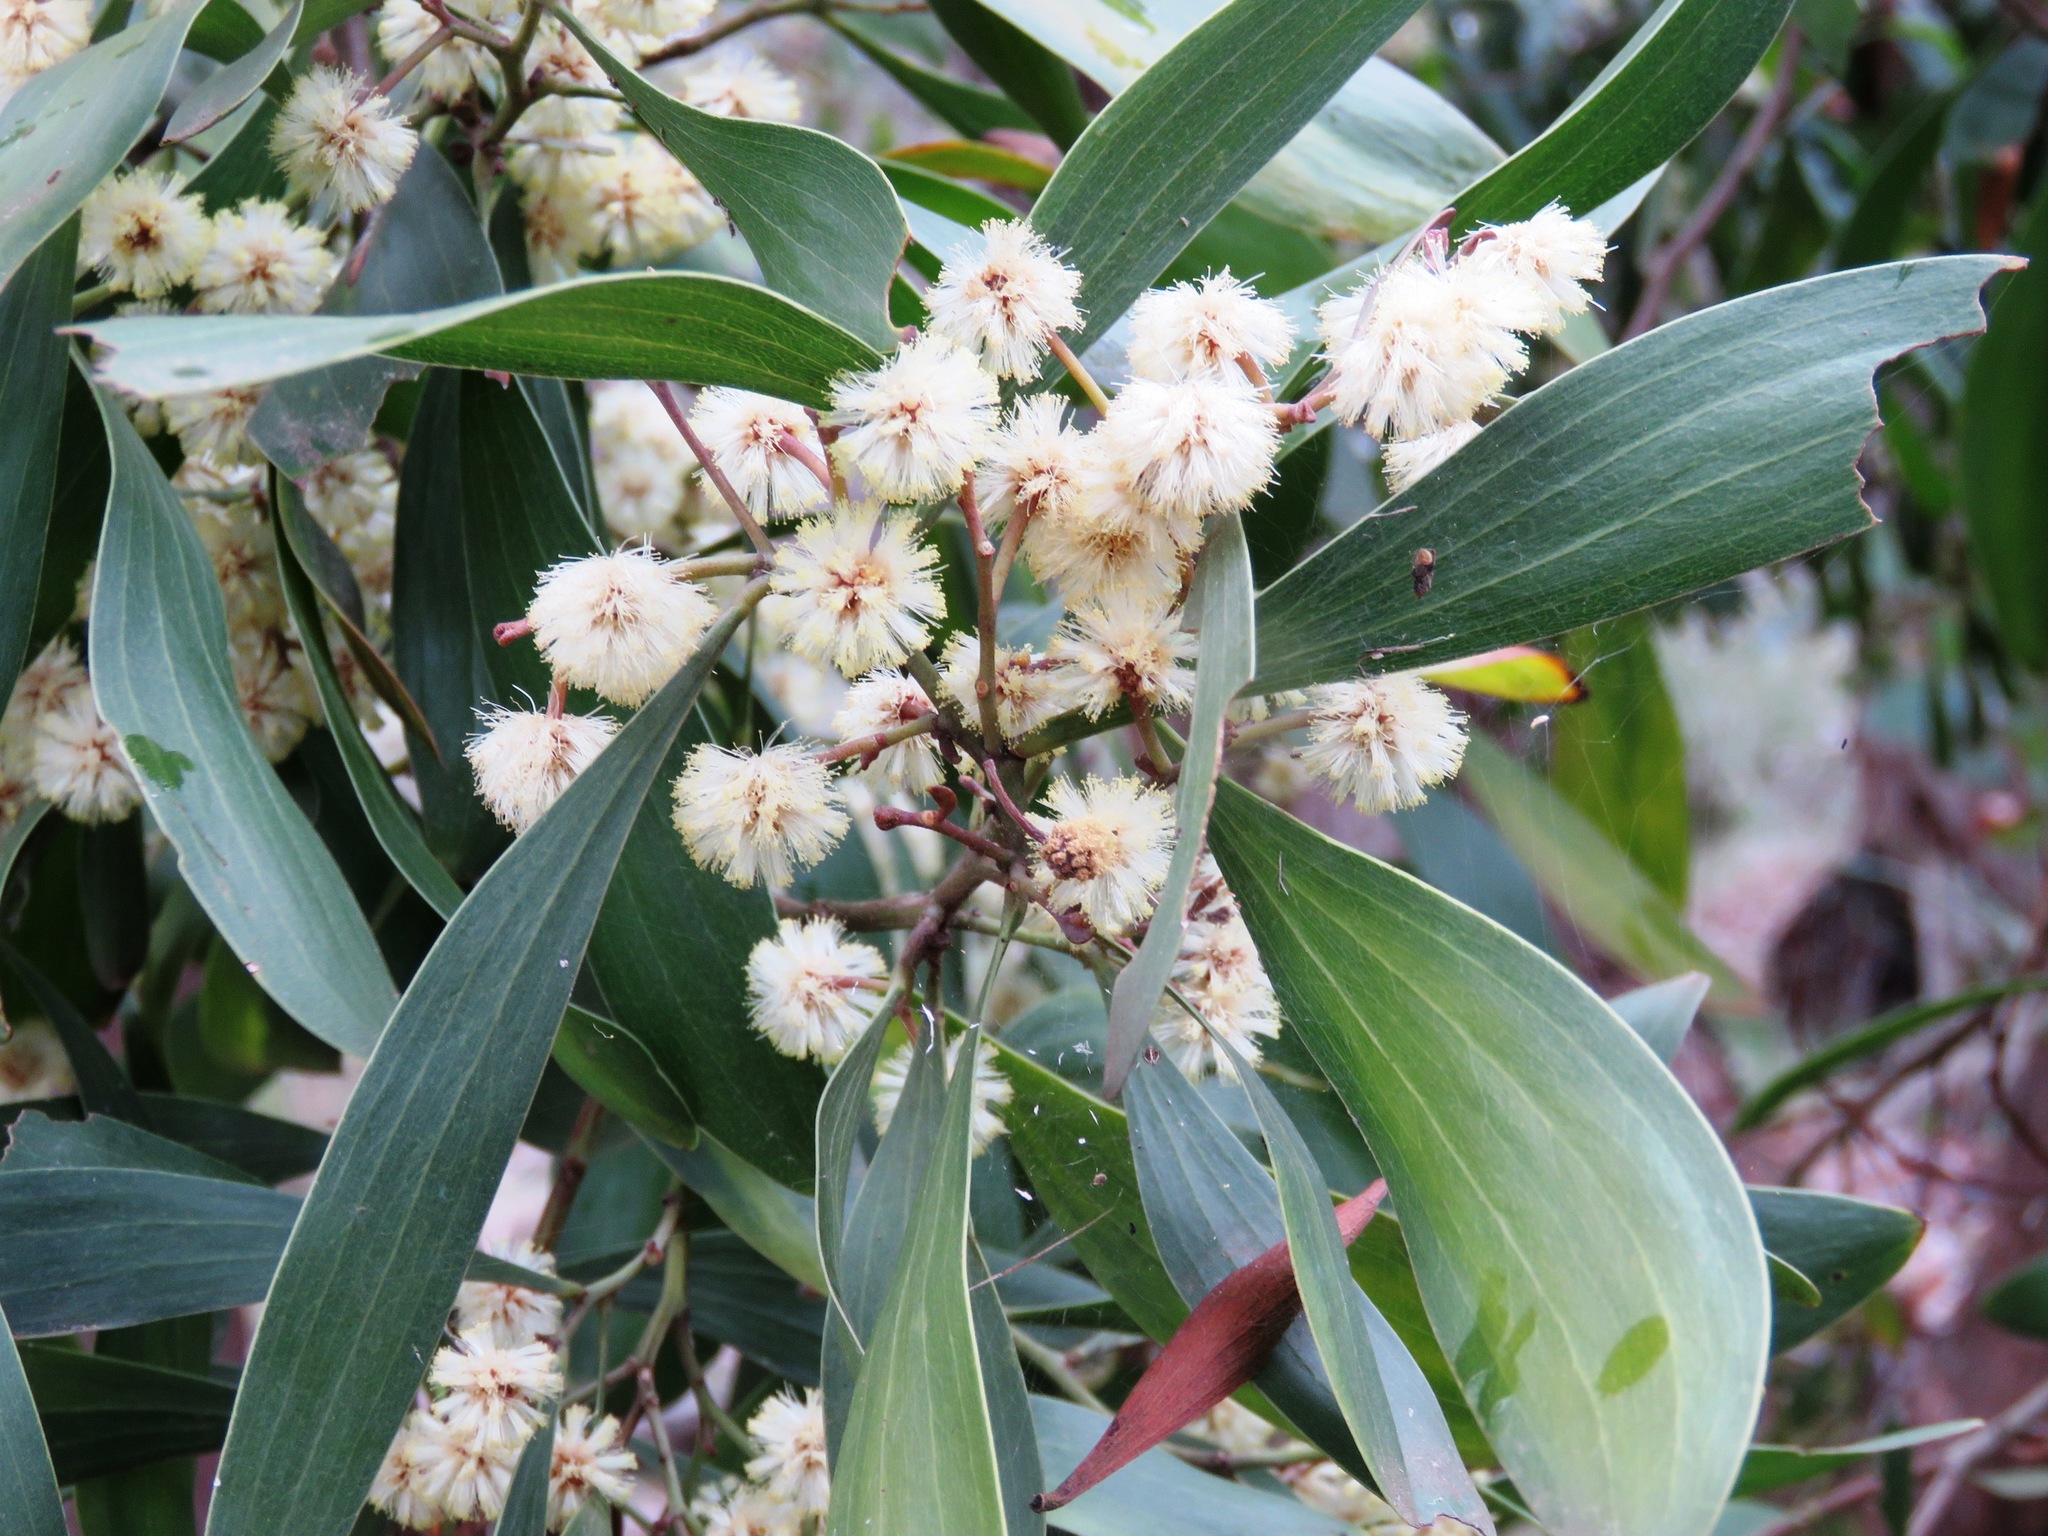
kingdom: Plantae
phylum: Tracheophyta
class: Magnoliopsida
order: Fabales
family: Fabaceae
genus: Acacia
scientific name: Acacia melanoxylon
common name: Blackwood
